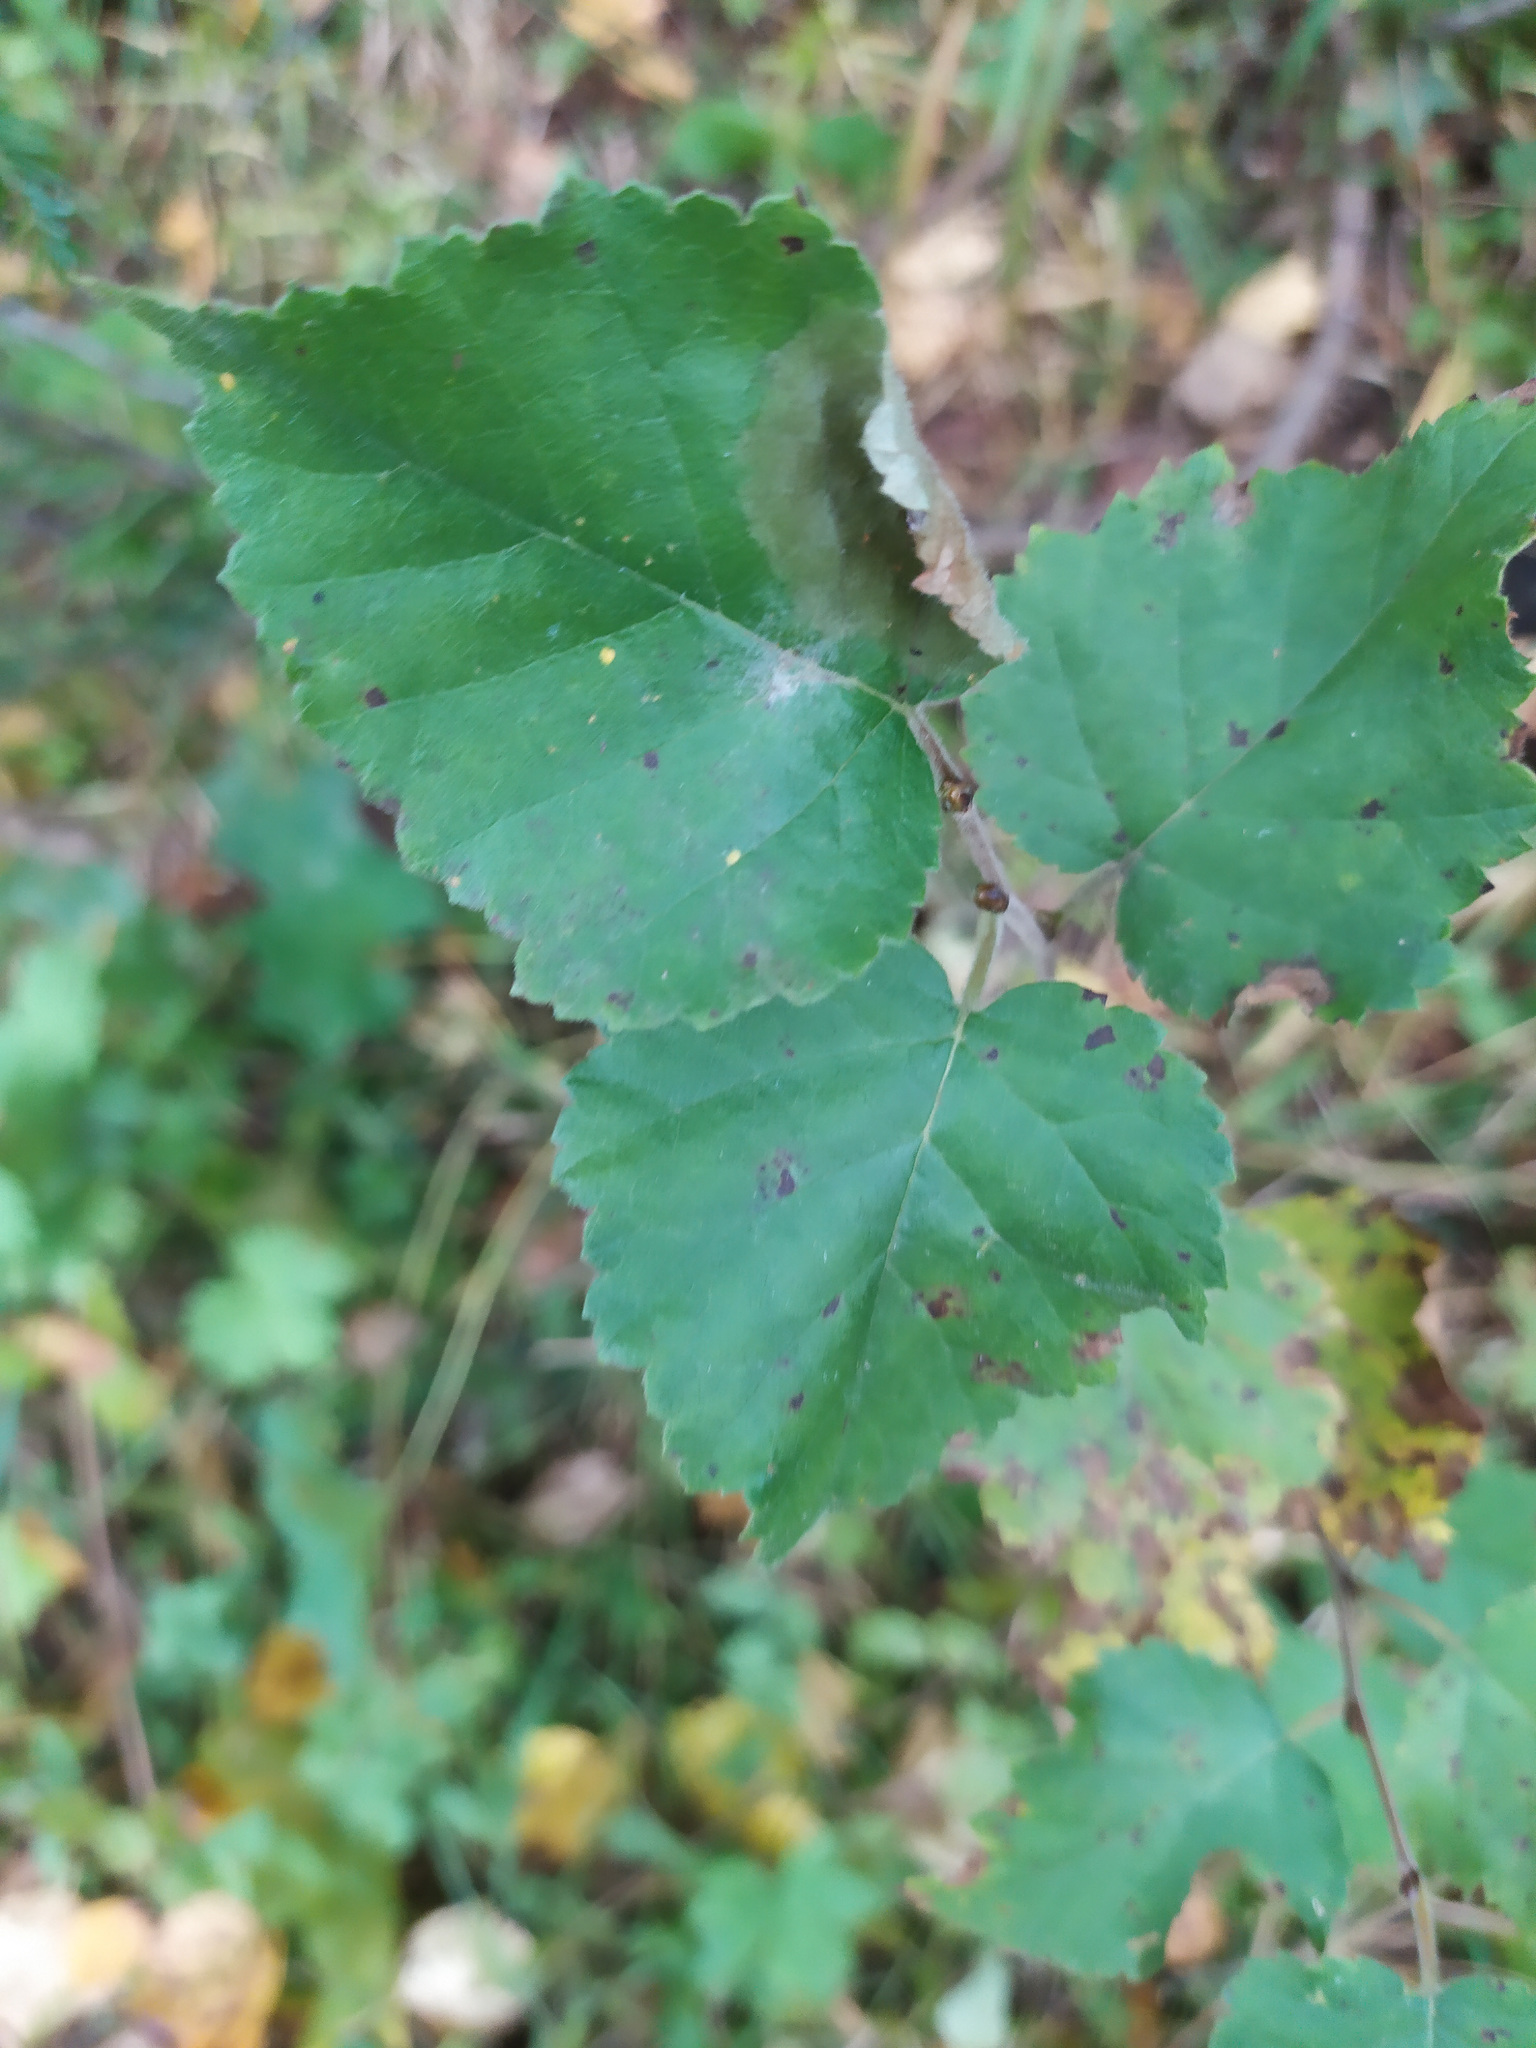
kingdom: Plantae
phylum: Tracheophyta
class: Magnoliopsida
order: Fagales
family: Betulaceae
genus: Betula
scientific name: Betula pubescens
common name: Downy birch
